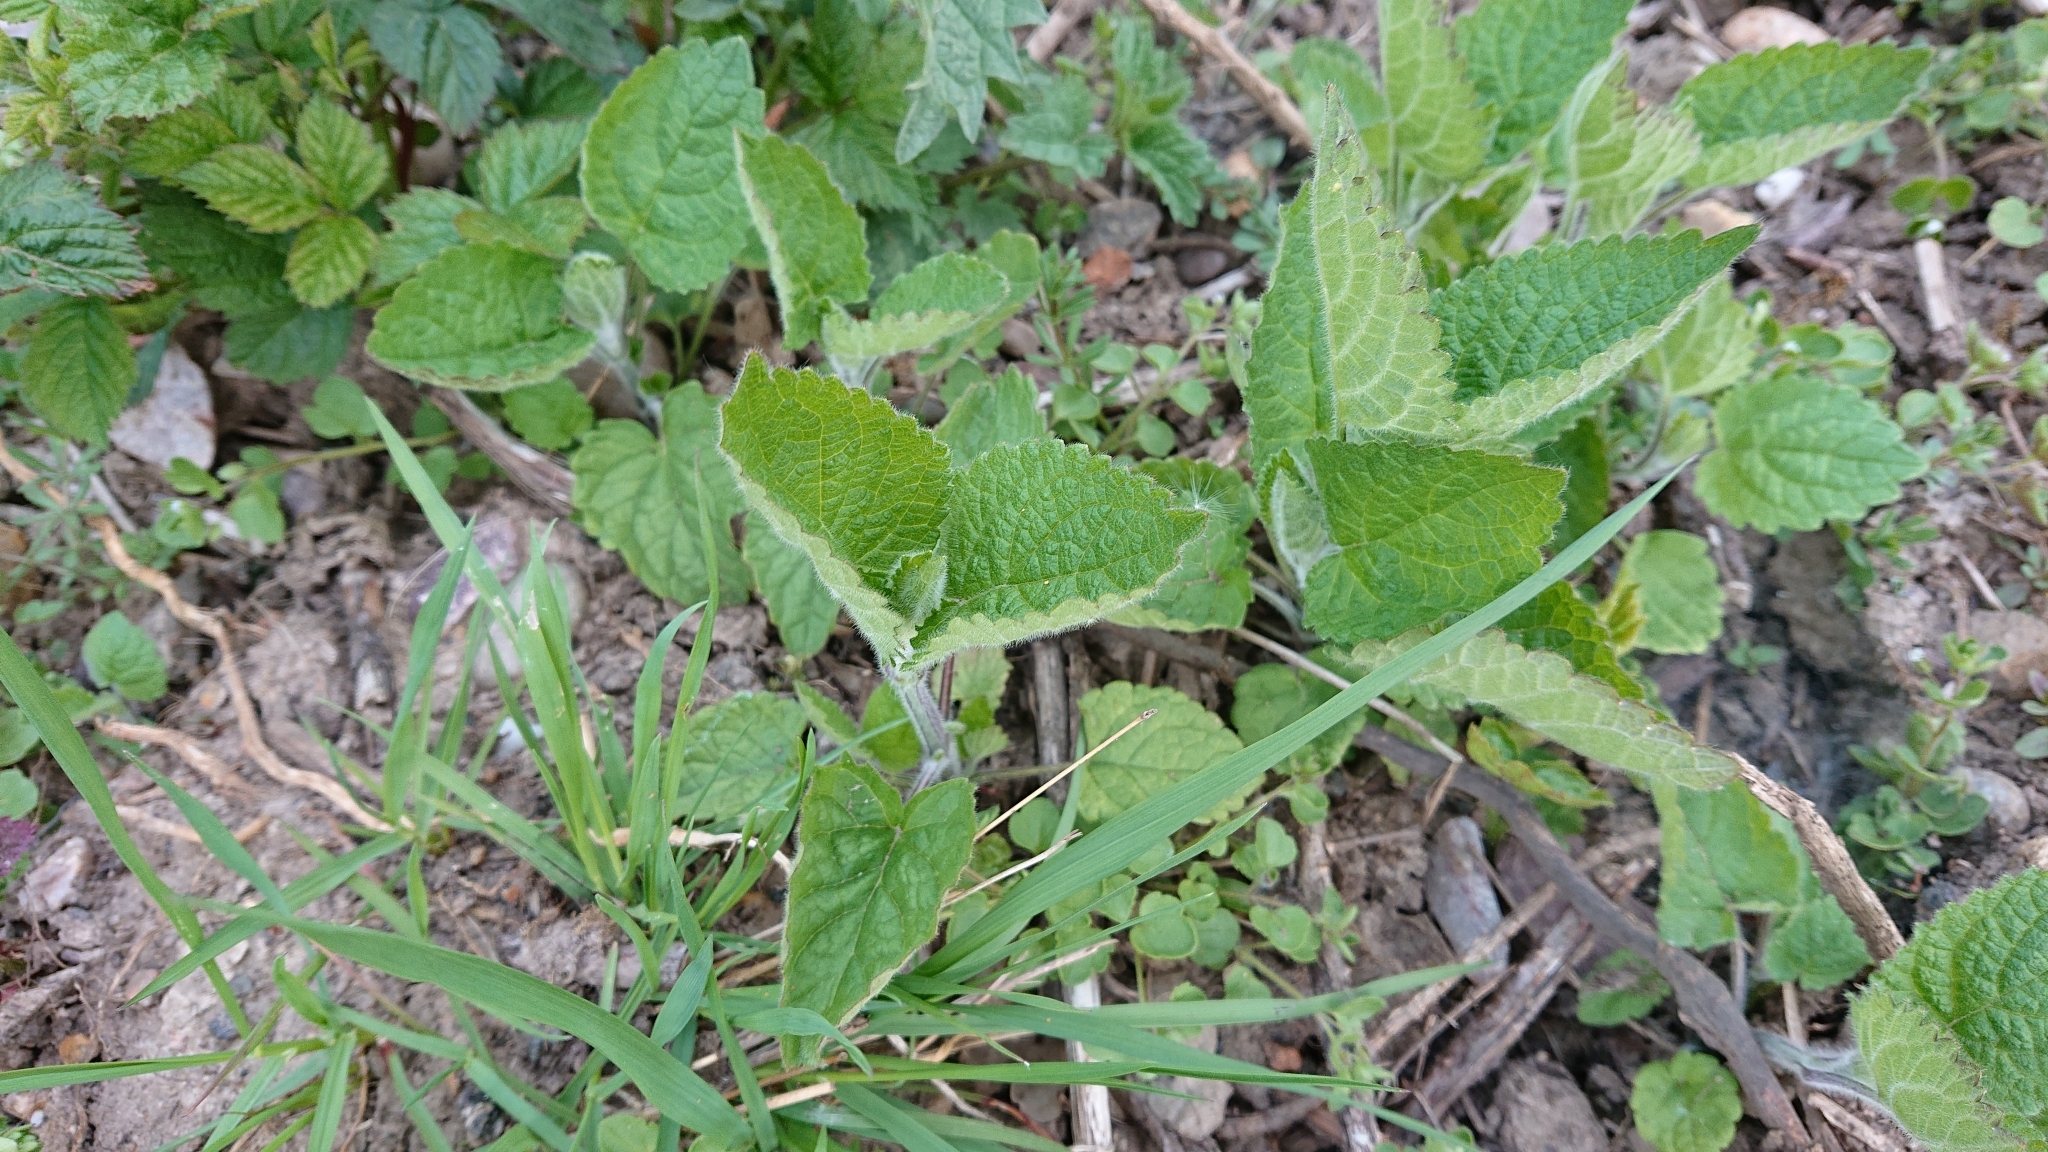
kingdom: Plantae
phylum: Tracheophyta
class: Magnoliopsida
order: Lamiales
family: Lamiaceae
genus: Stachys
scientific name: Stachys sylvatica
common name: Hedge woundwort
